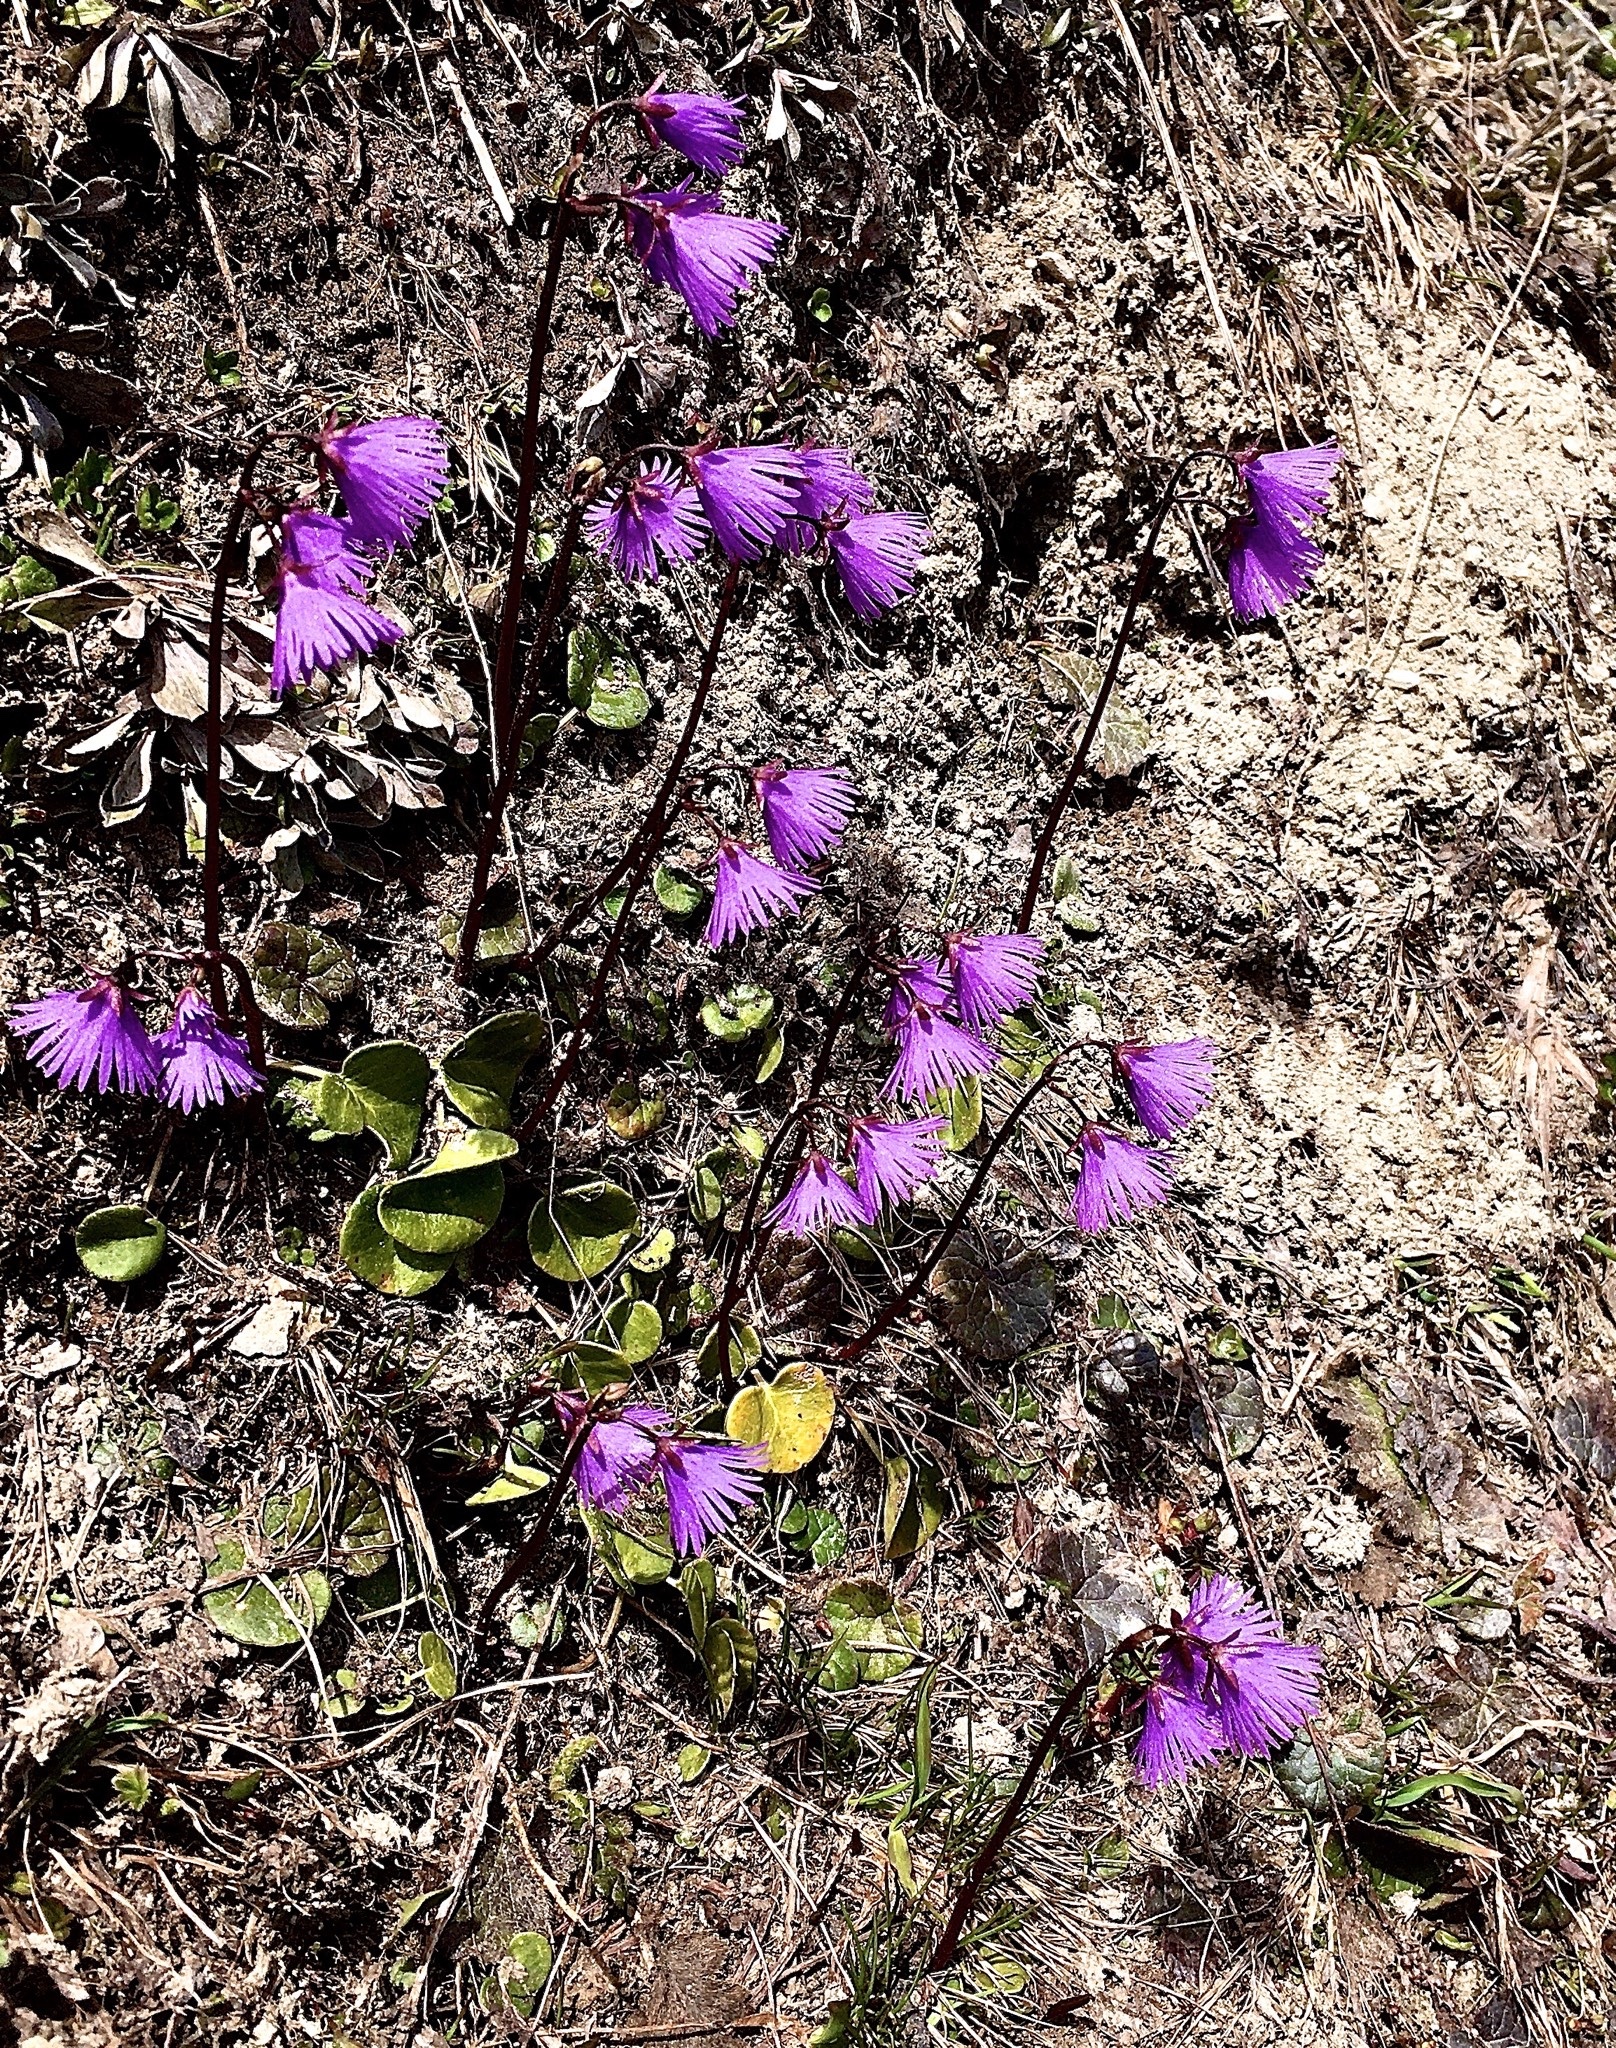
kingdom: Plantae
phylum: Tracheophyta
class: Magnoliopsida
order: Ericales
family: Primulaceae
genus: Soldanella
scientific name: Soldanella alpina
